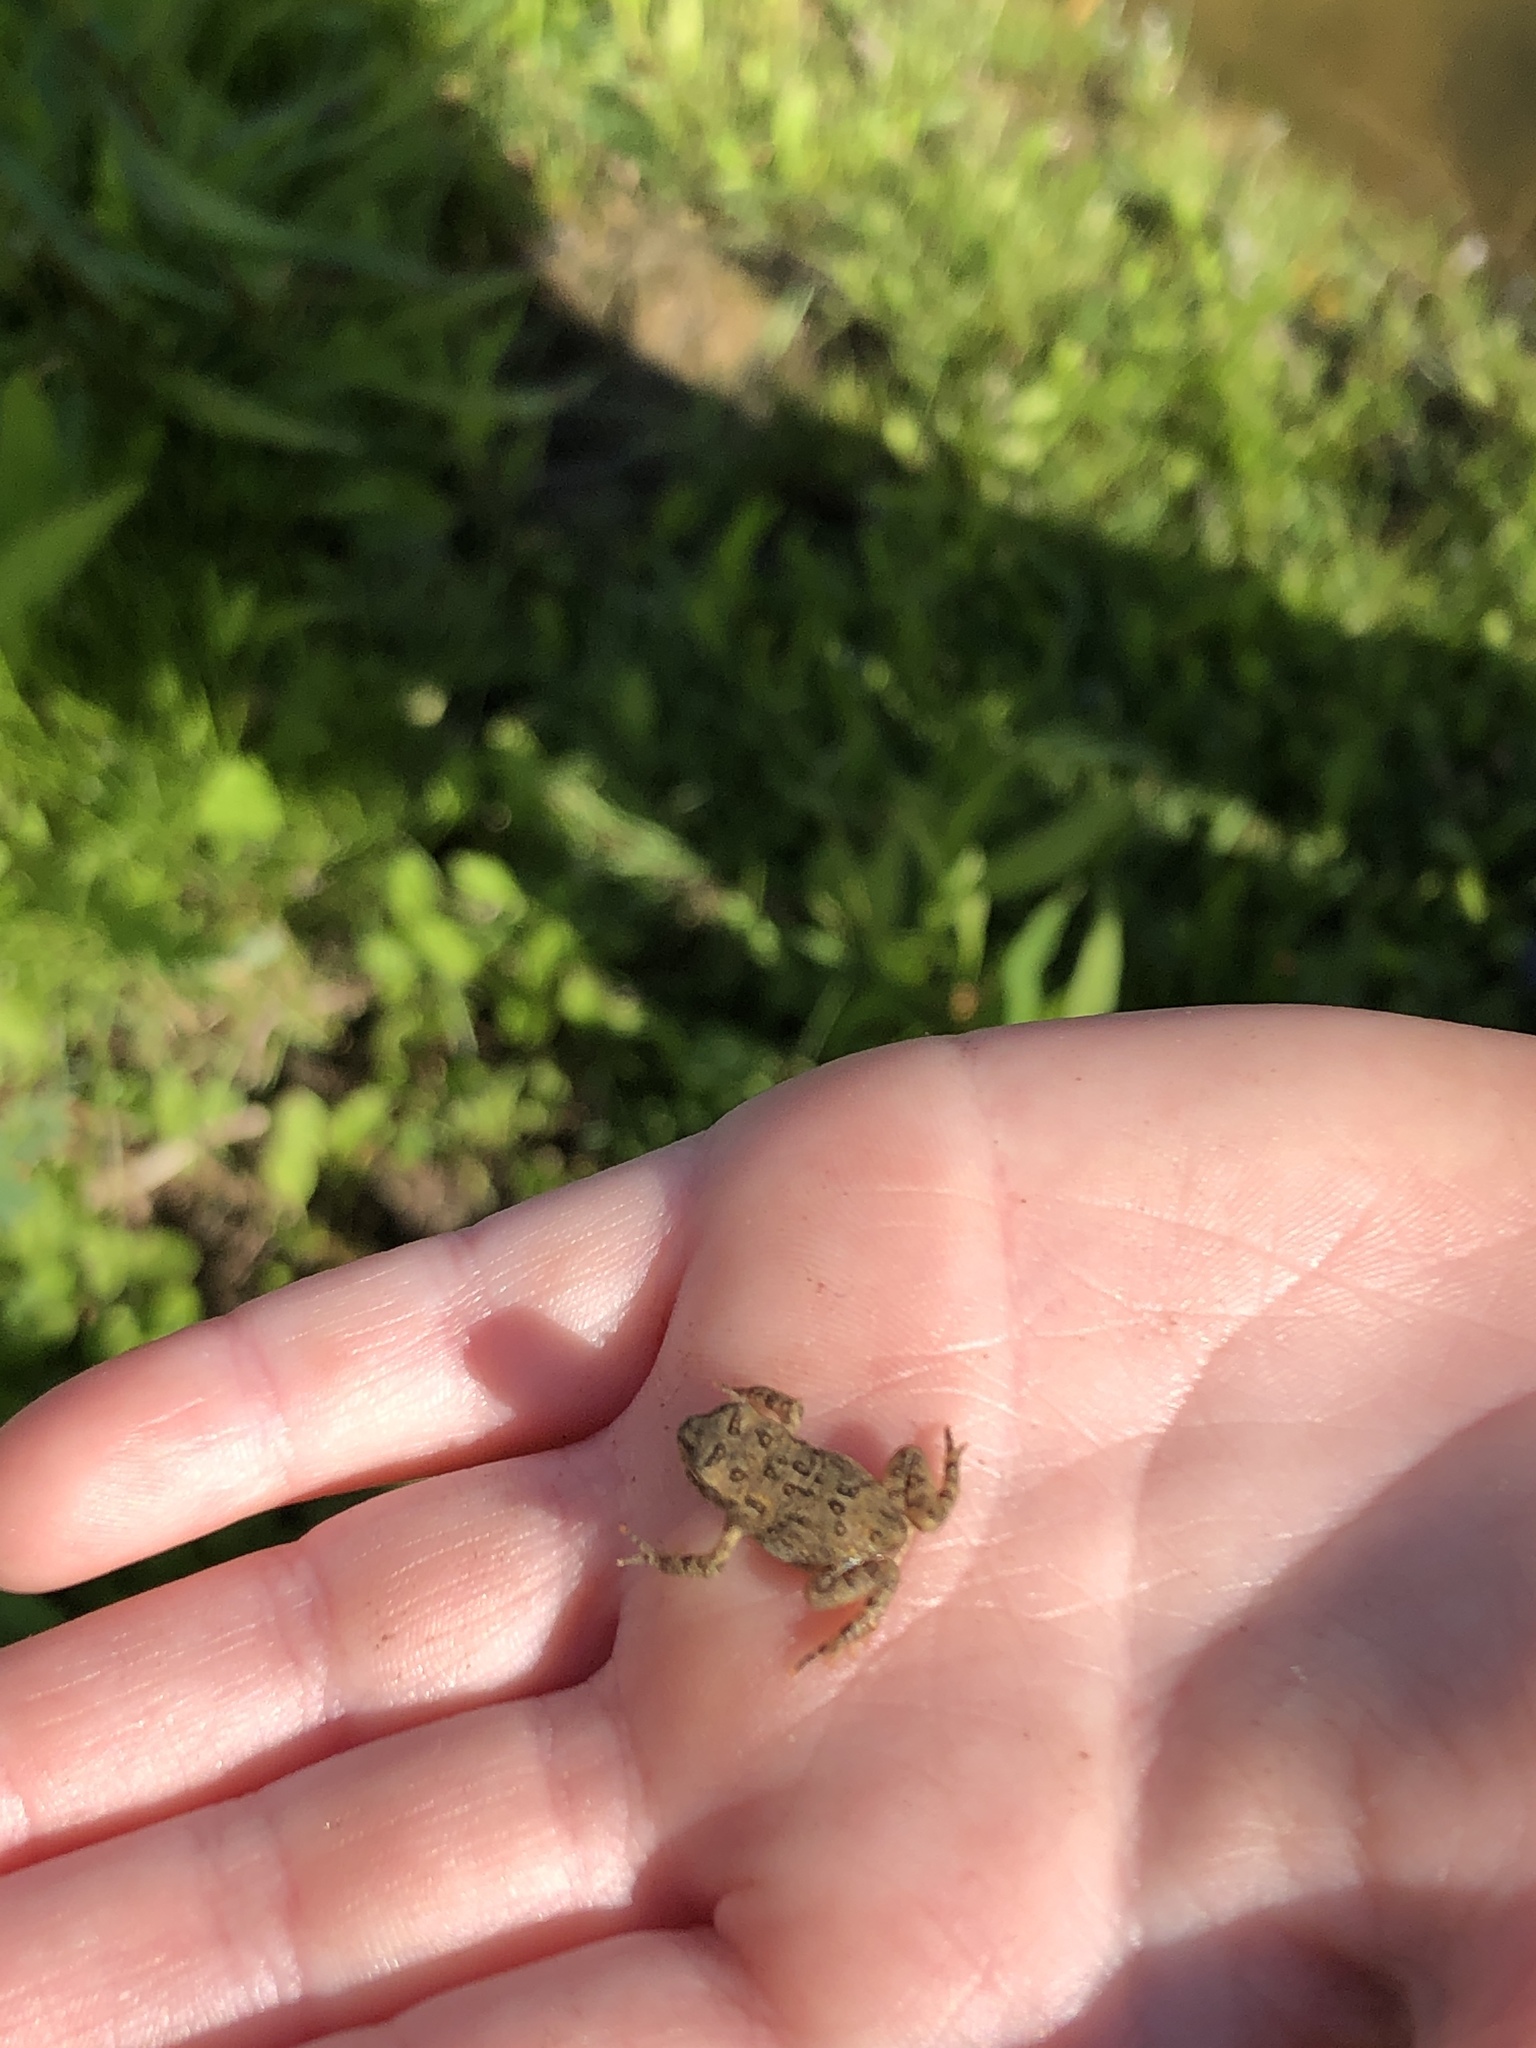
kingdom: Animalia
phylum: Chordata
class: Amphibia
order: Anura
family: Bufonidae
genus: Anaxyrus
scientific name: Anaxyrus americanus
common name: American toad
